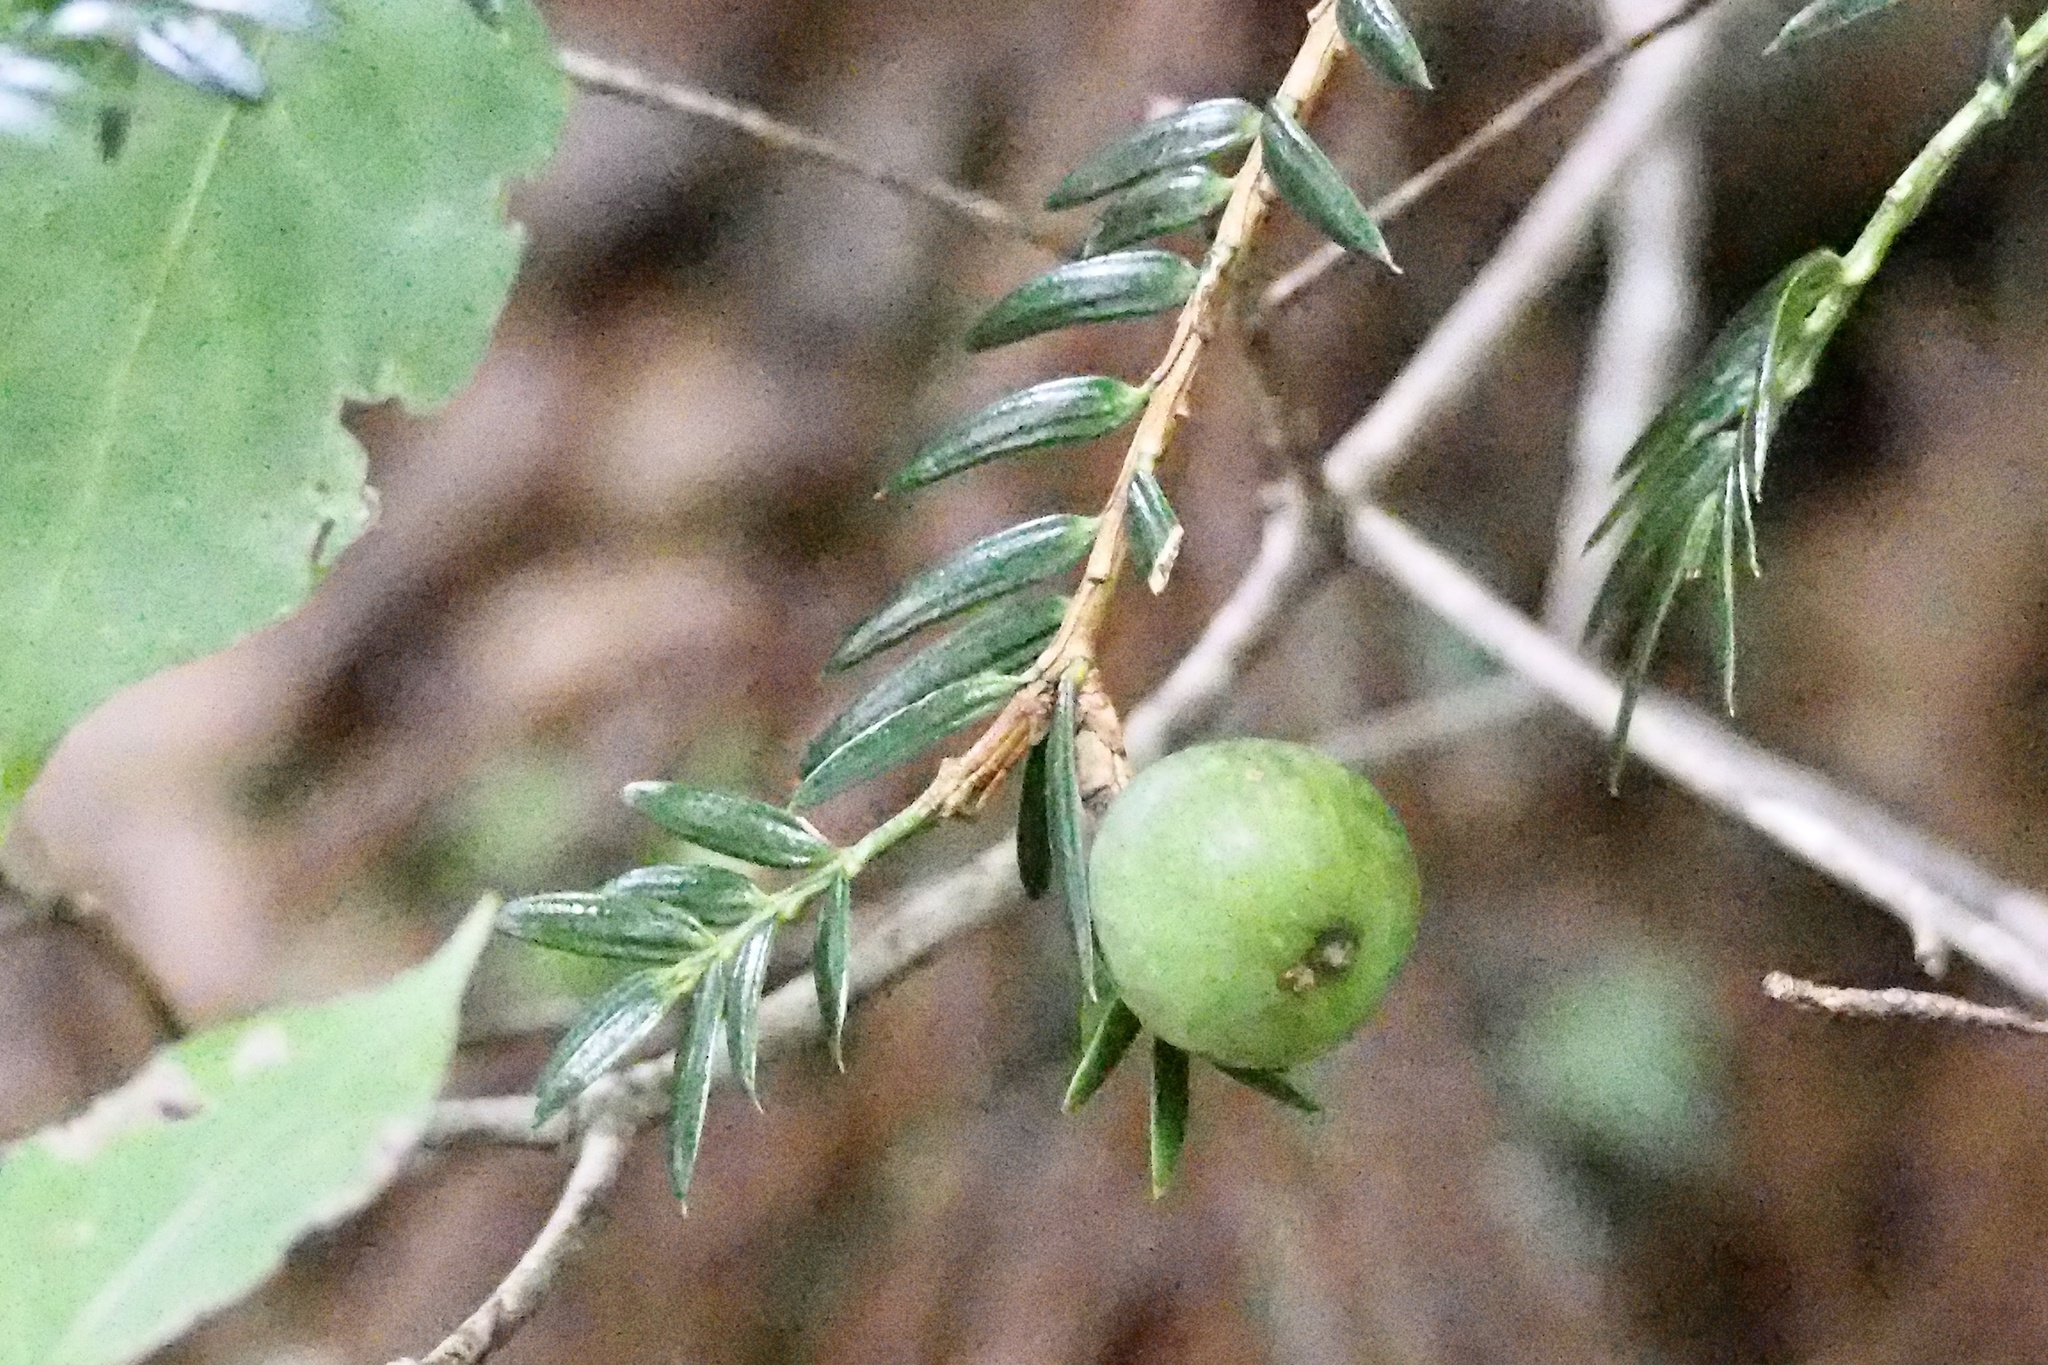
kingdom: Plantae
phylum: Tracheophyta
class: Pinopsida
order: Pinales
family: Taxaceae
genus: Torreya
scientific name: Torreya nucifera
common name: Japanese nutmeg tree
